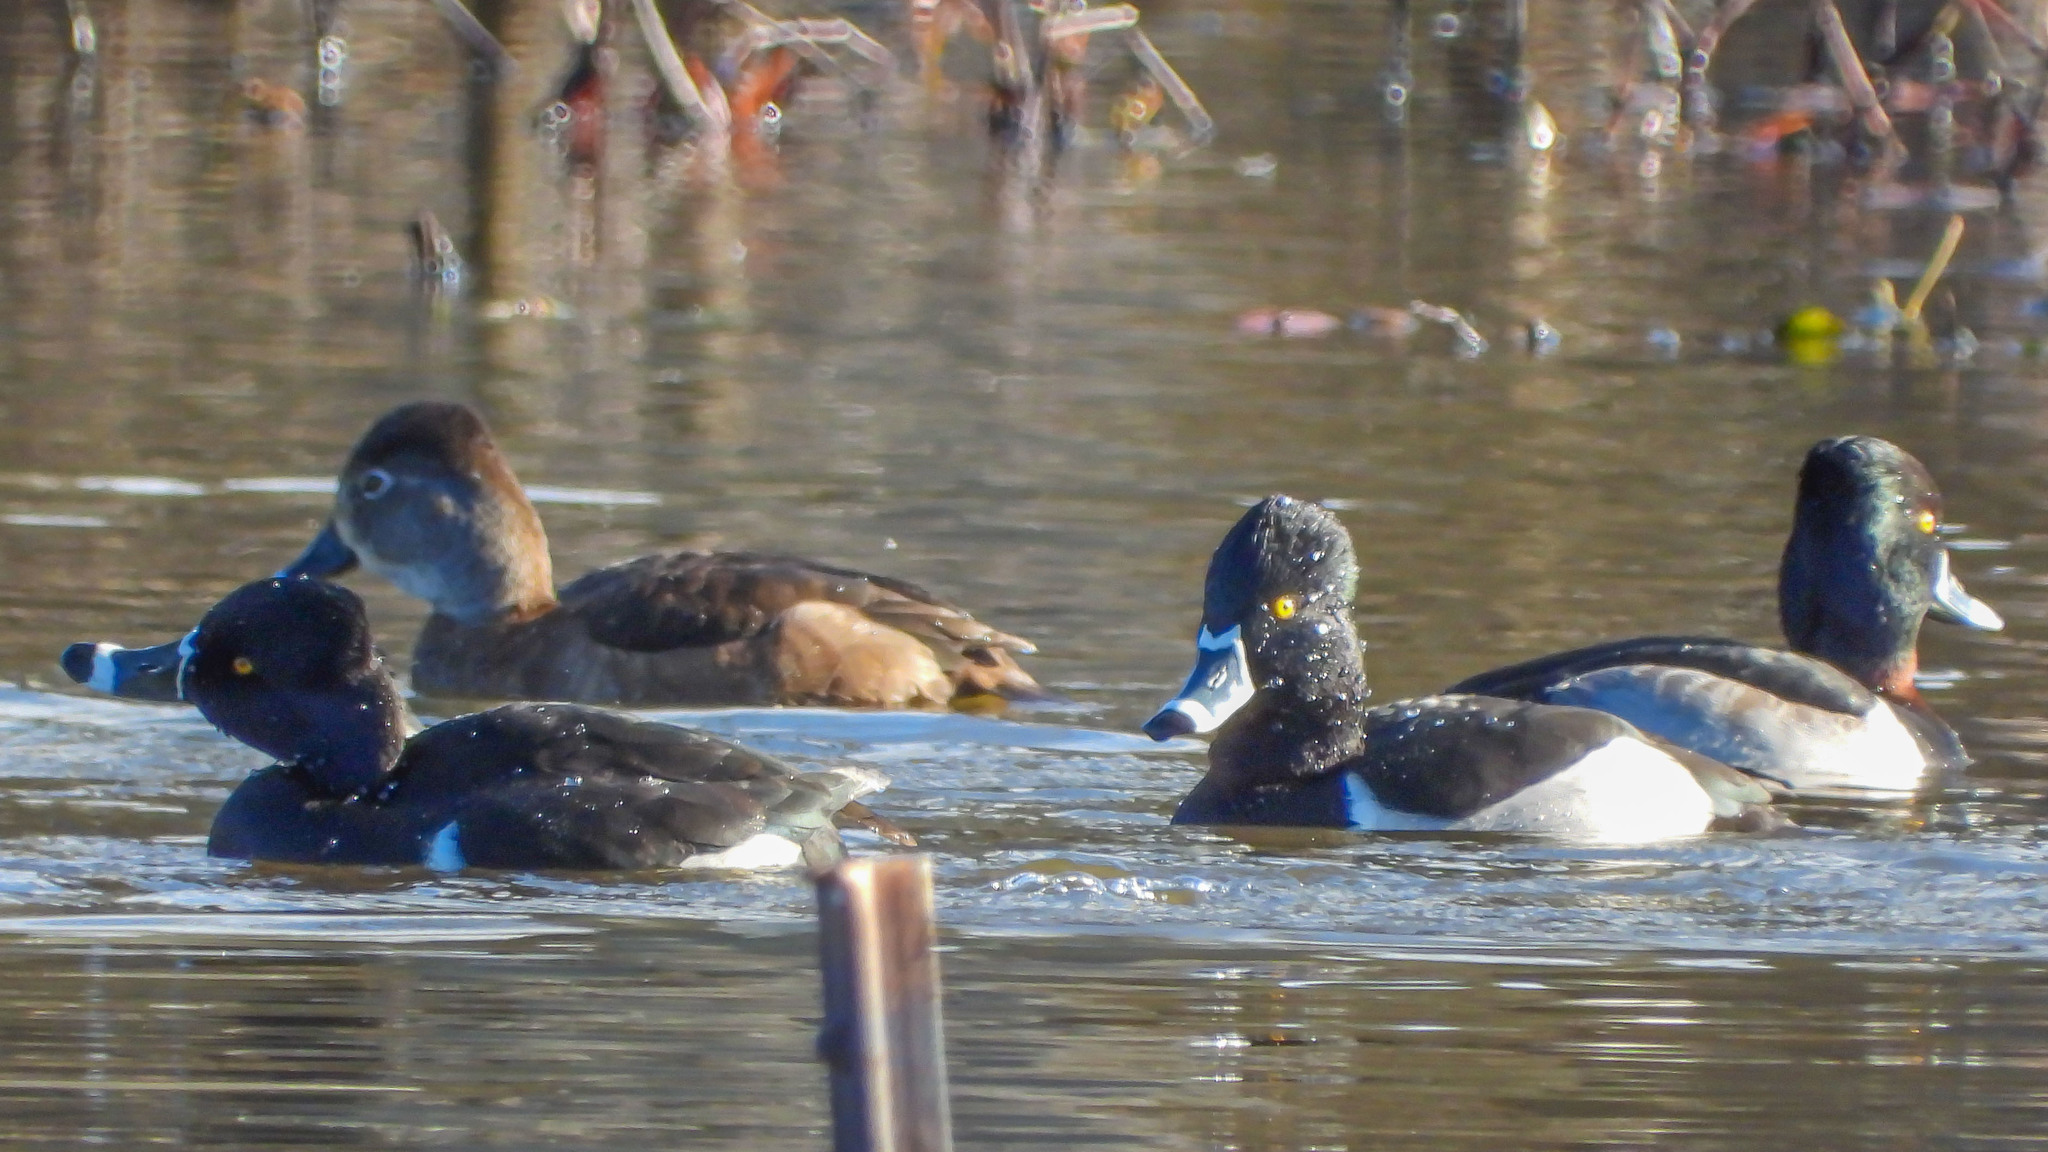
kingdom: Animalia
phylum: Chordata
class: Aves
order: Anseriformes
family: Anatidae
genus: Aythya
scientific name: Aythya collaris
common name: Ring-necked duck
